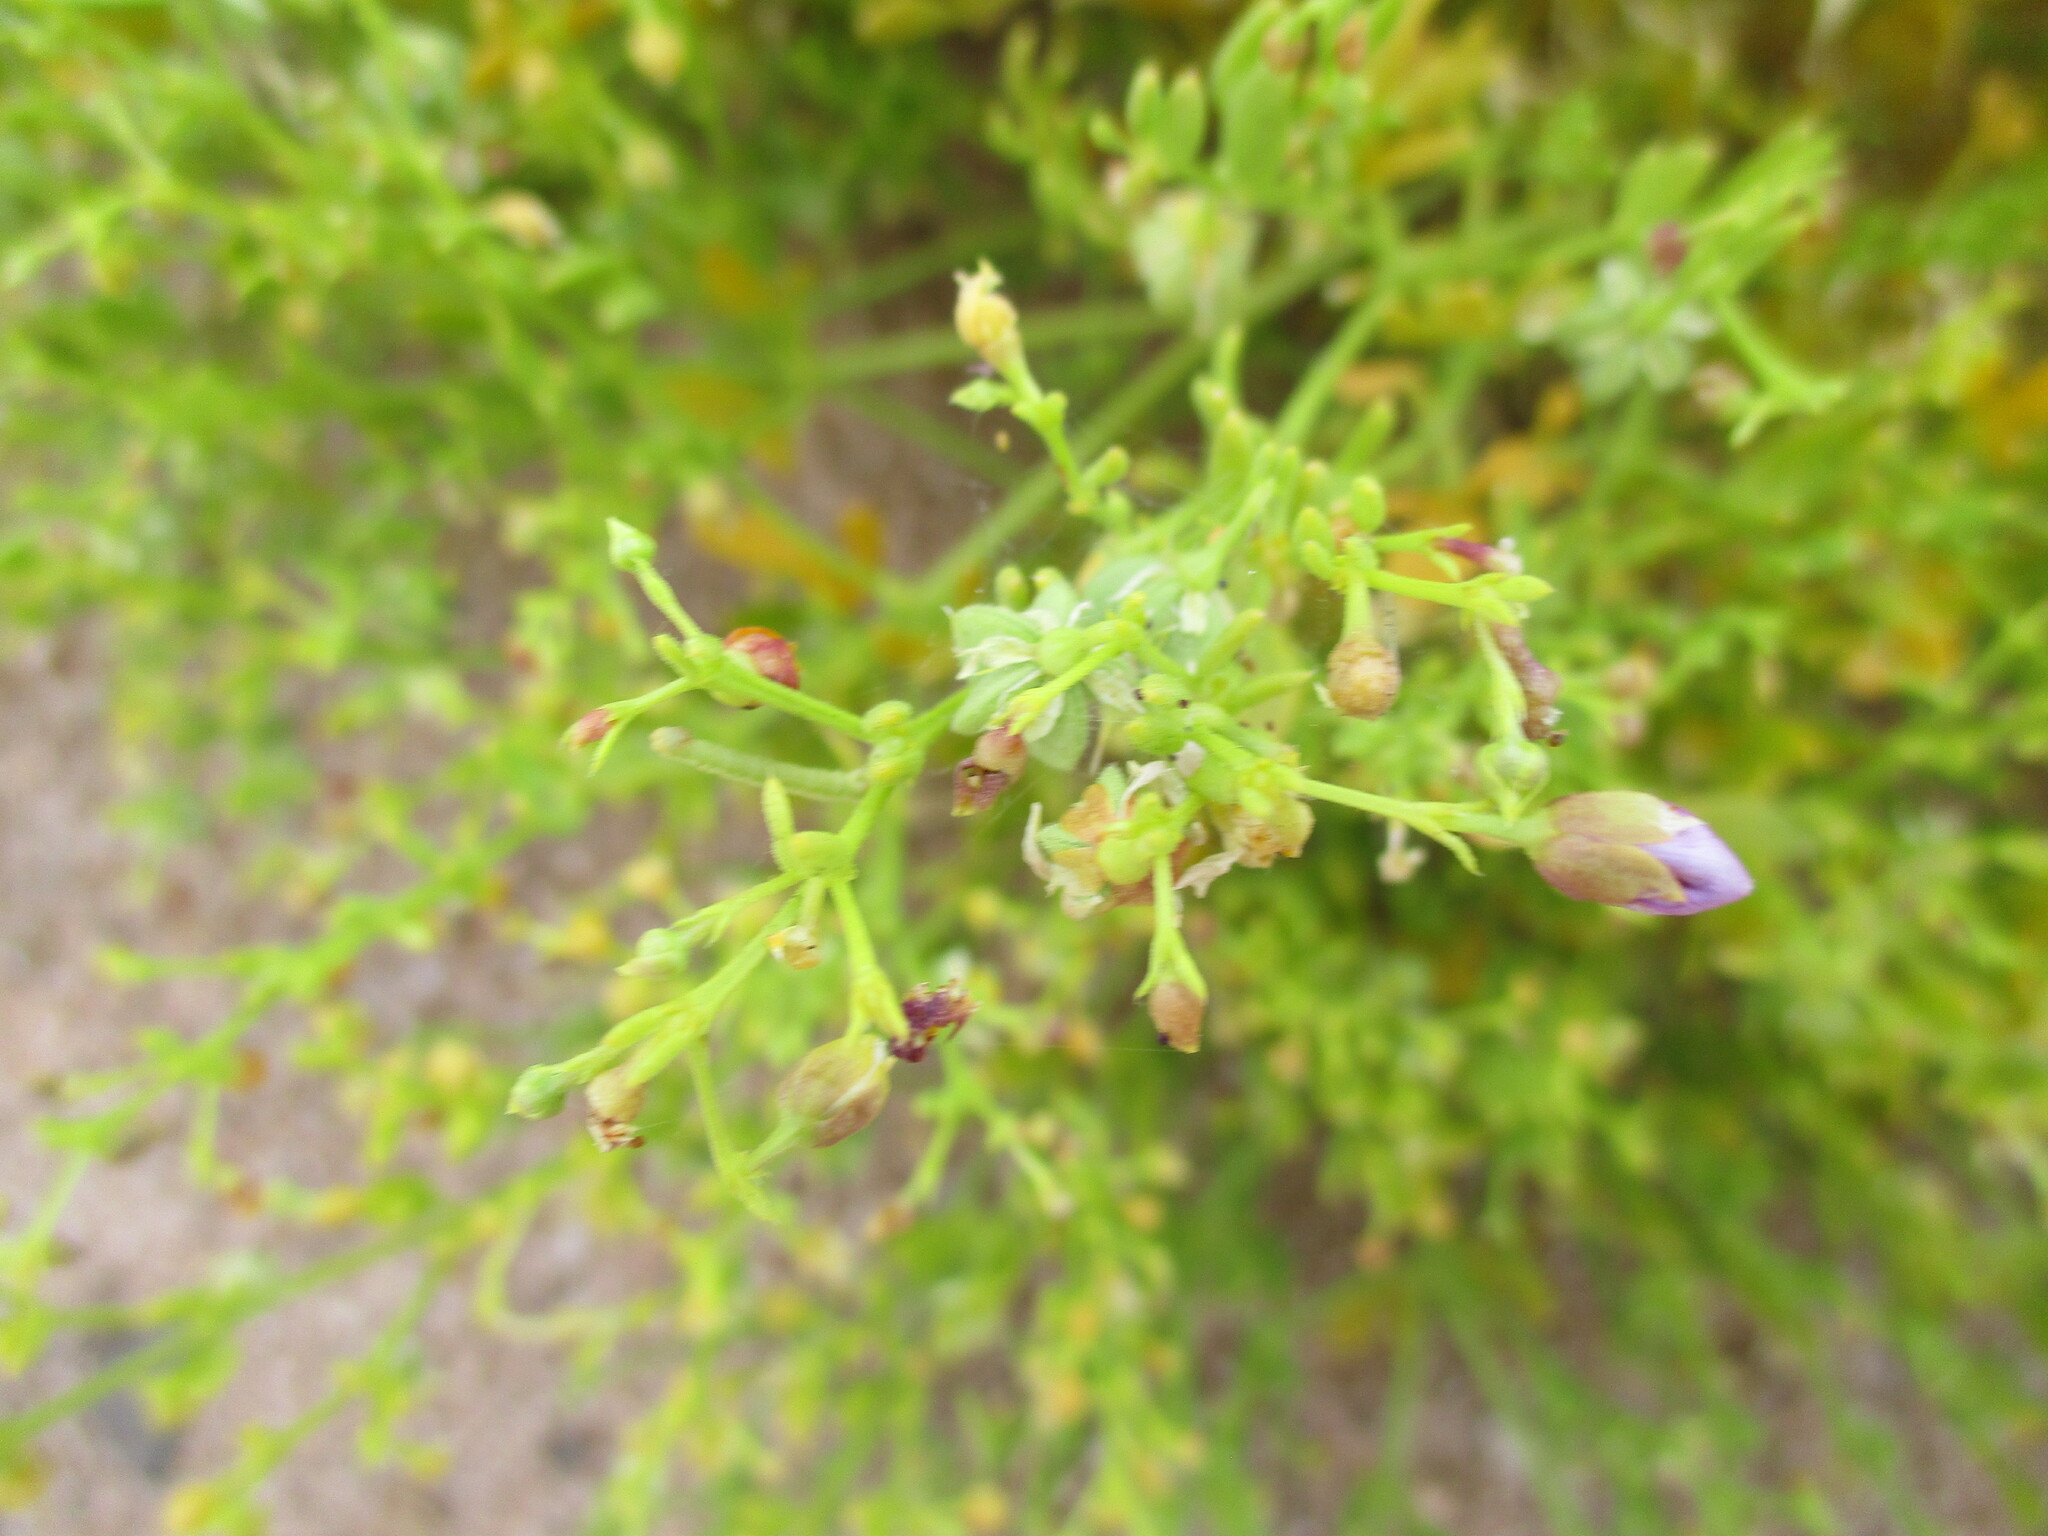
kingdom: Plantae
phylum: Tracheophyta
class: Magnoliopsida
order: Zygophyllales
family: Zygophyllaceae
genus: Fagonia
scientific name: Fagonia minutistipula
